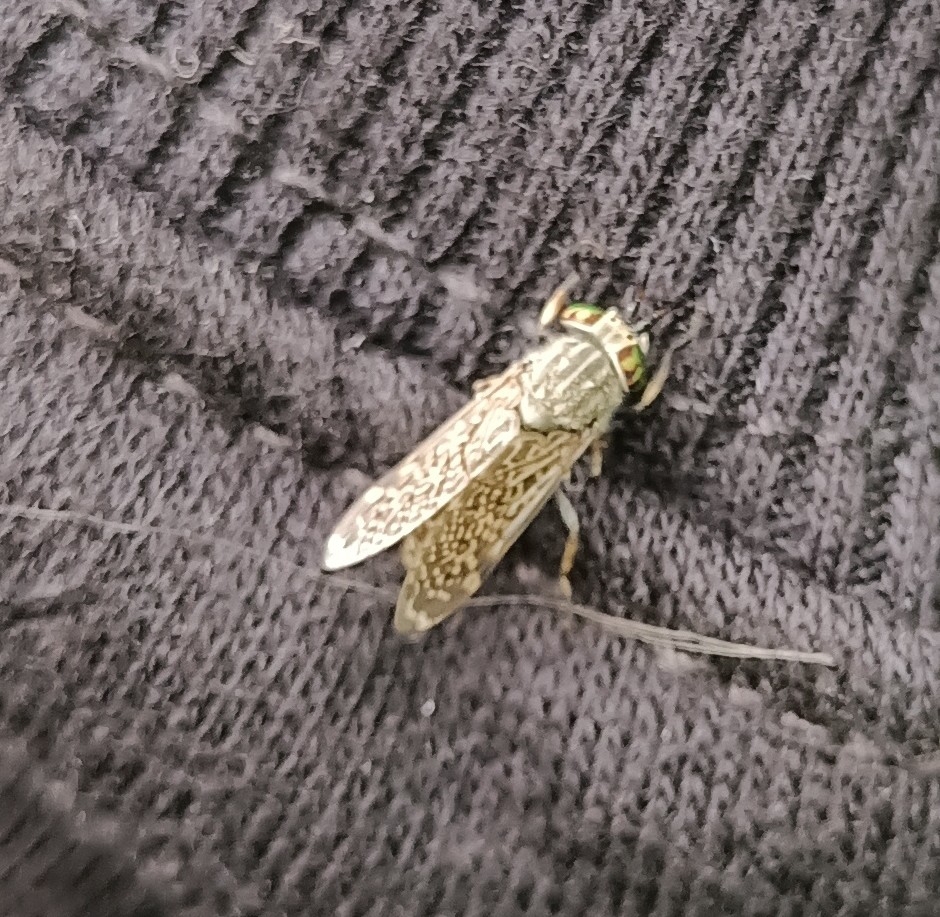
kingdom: Animalia
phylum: Arthropoda
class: Insecta
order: Diptera
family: Tabanidae
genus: Haematopota
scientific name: Haematopota pluvialis
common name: Common horse fly
